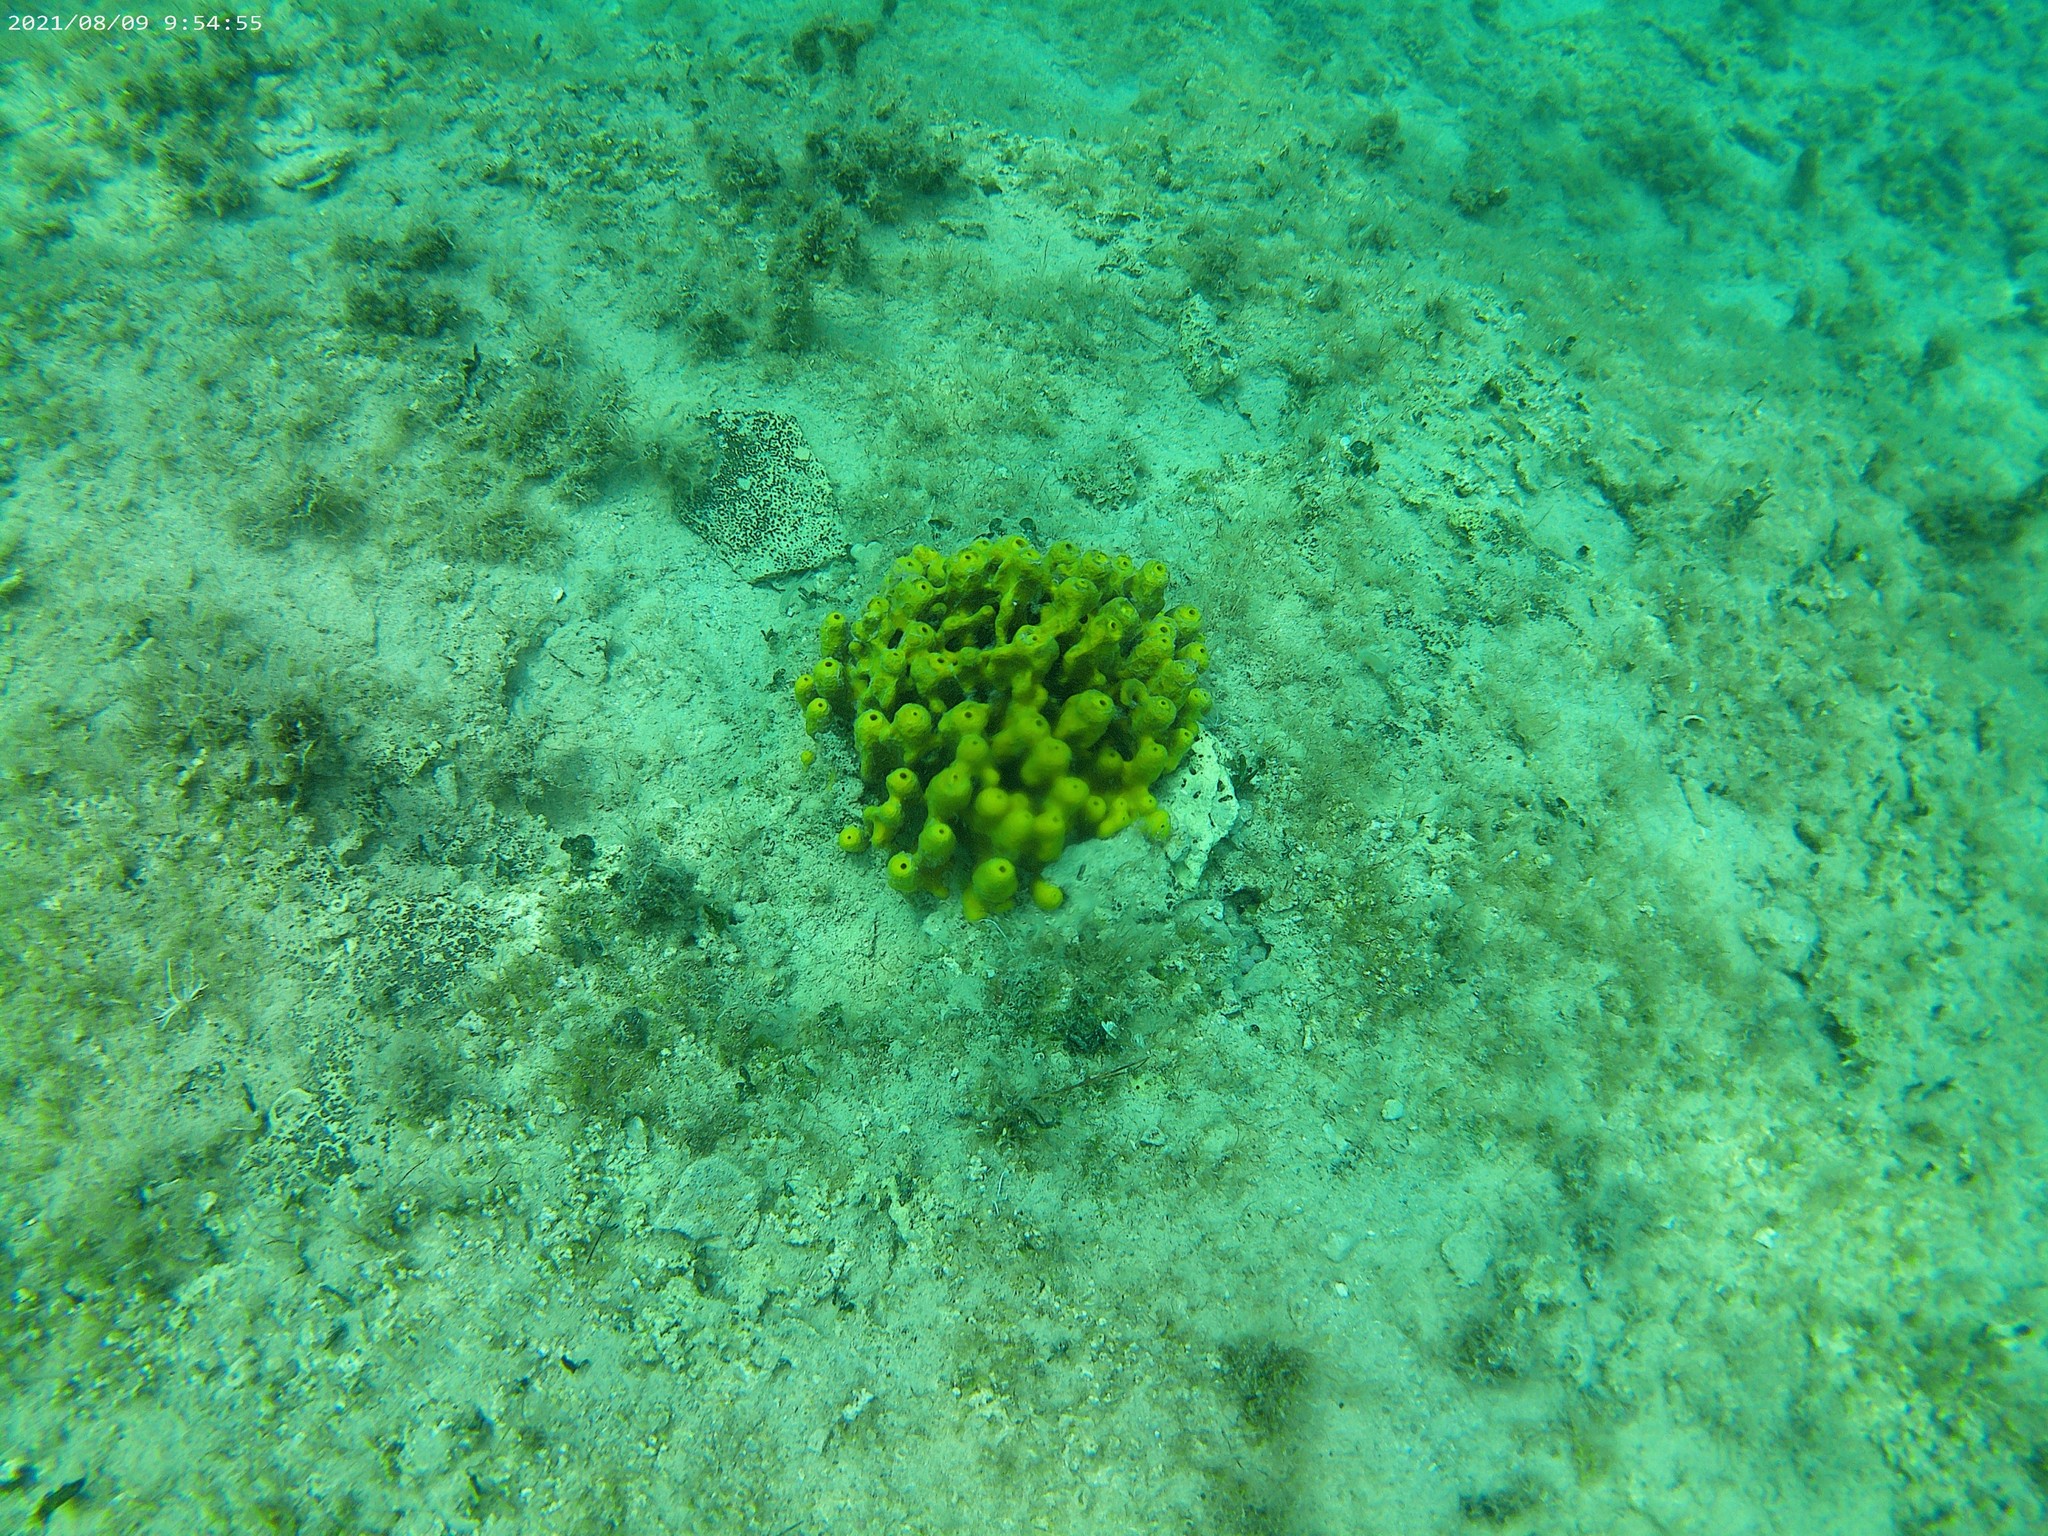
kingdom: Animalia
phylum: Porifera
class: Demospongiae
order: Verongiida
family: Aplysinidae
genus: Aplysina
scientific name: Aplysina aerophoba
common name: Aureate sponge
